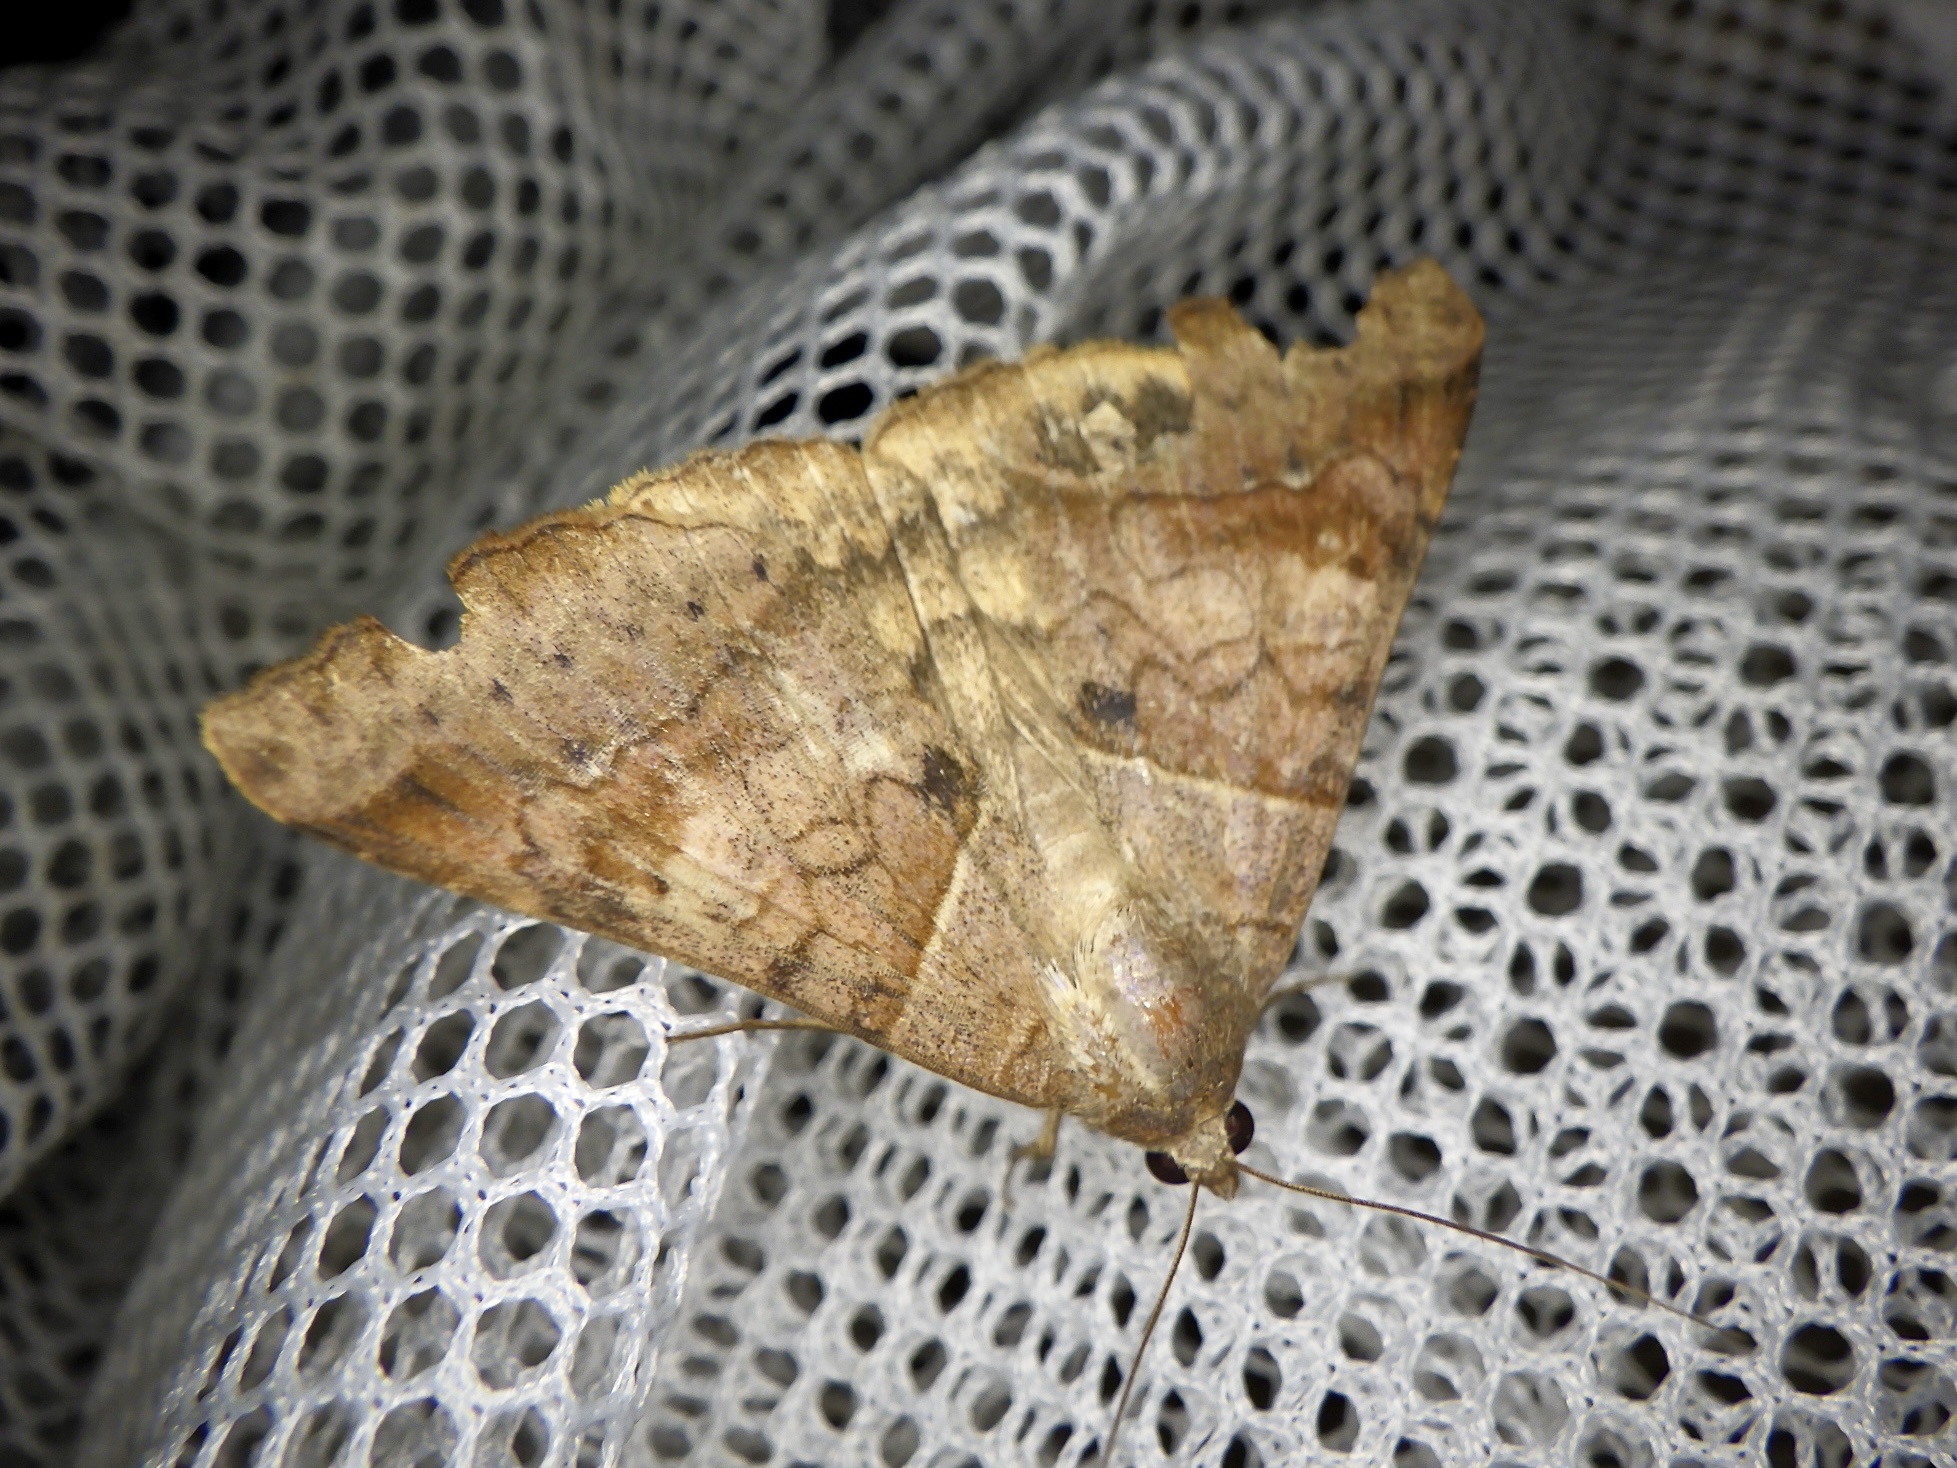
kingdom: Animalia
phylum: Arthropoda
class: Insecta
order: Lepidoptera
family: Erebidae
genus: Mocis
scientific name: Mocis undata
